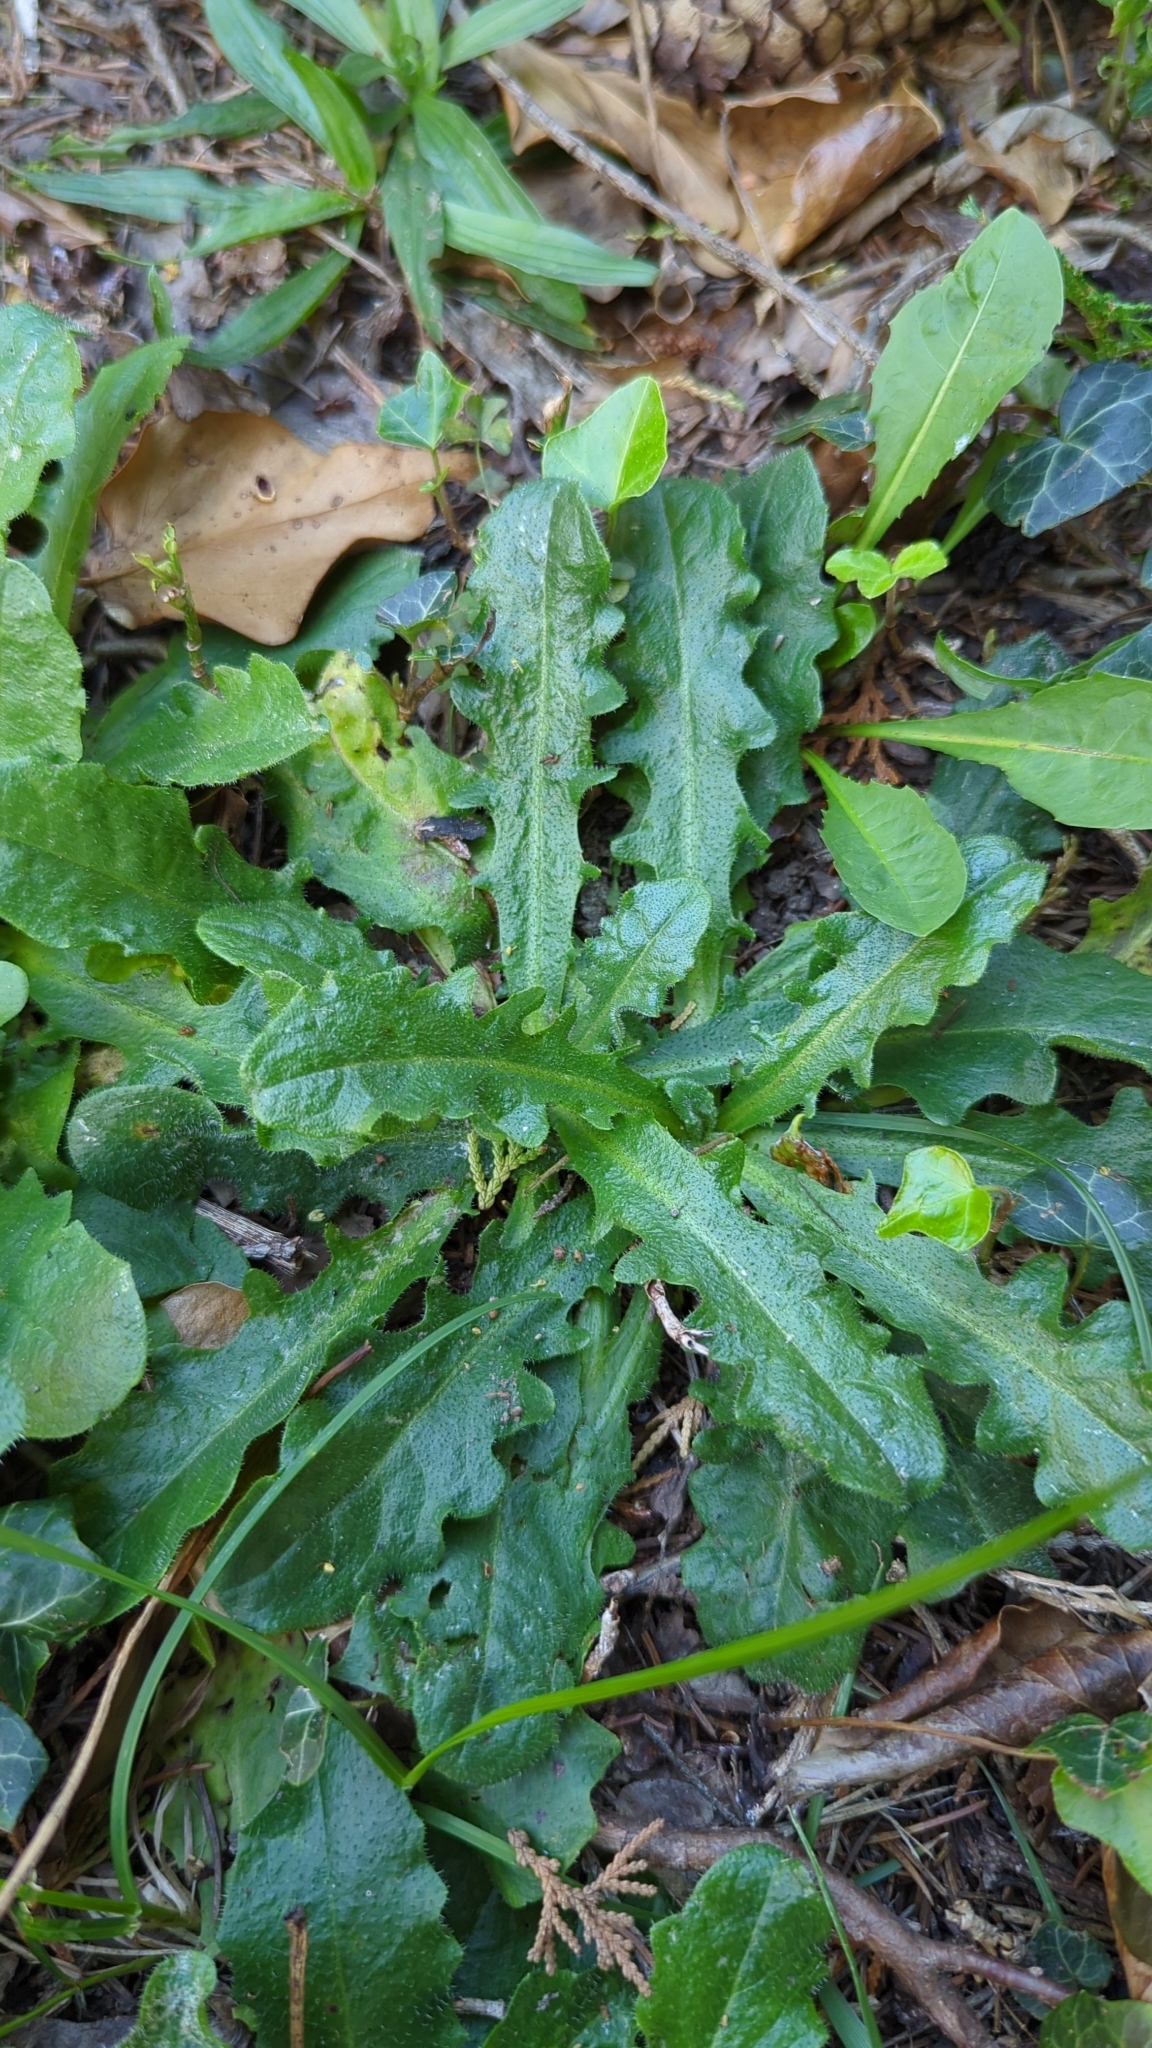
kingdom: Plantae
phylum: Tracheophyta
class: Magnoliopsida
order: Asterales
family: Asteraceae
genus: Hypochaeris
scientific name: Hypochaeris radicata
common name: Flatweed
